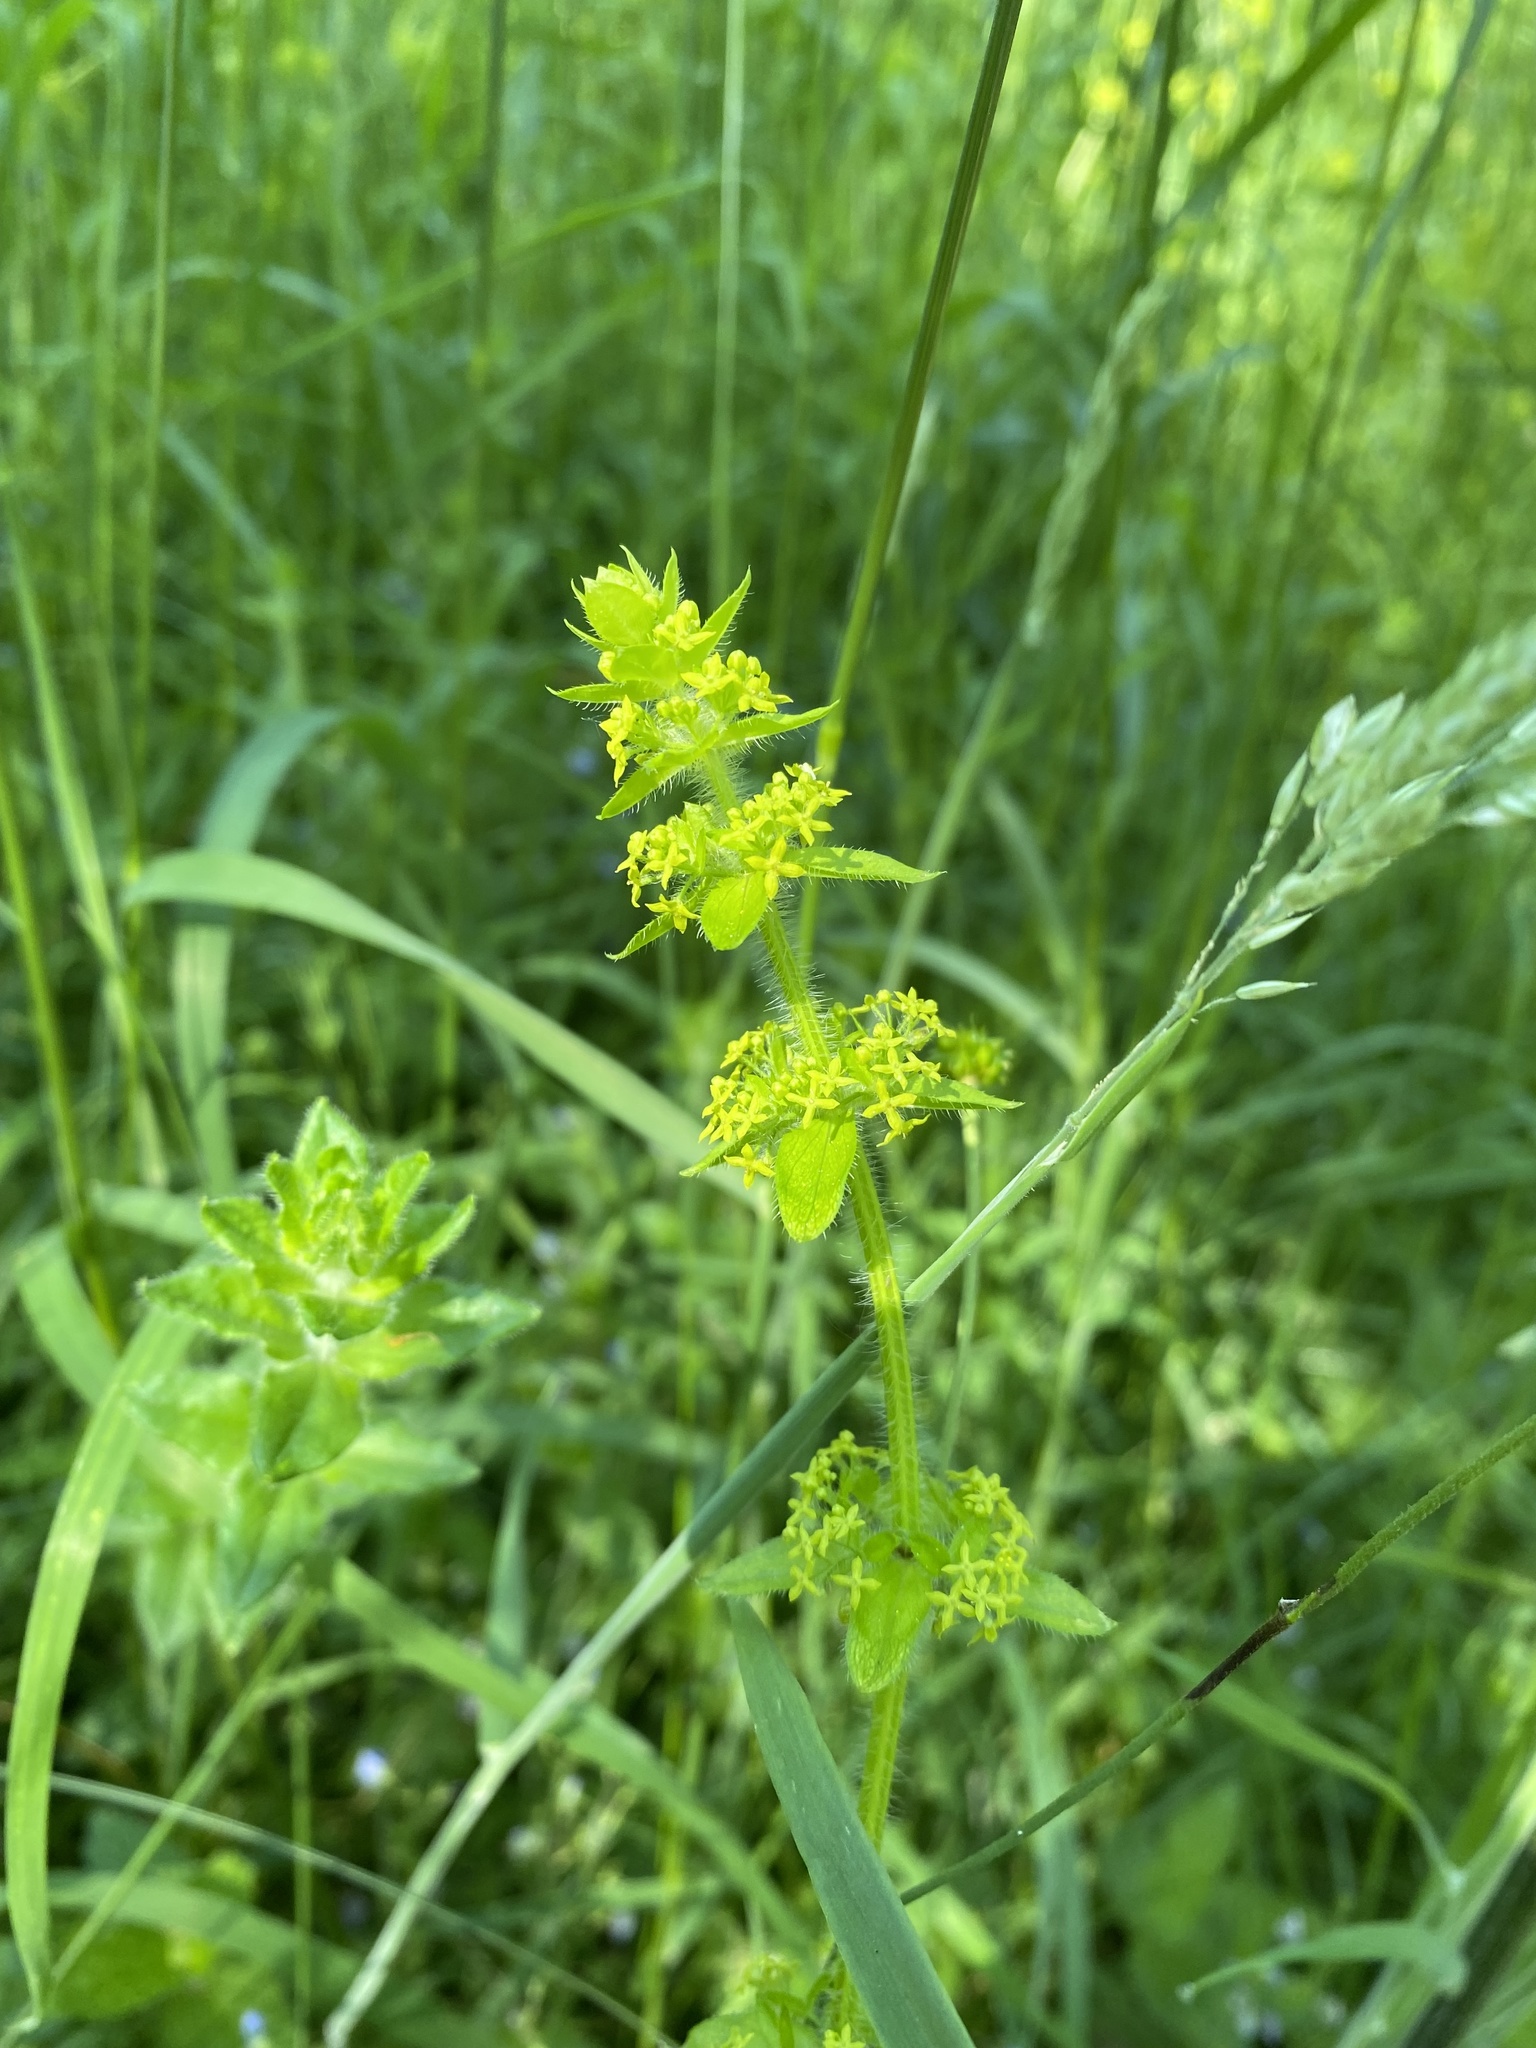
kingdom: Plantae
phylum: Tracheophyta
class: Magnoliopsida
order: Gentianales
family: Rubiaceae
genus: Cruciata
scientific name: Cruciata laevipes
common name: Crosswort
